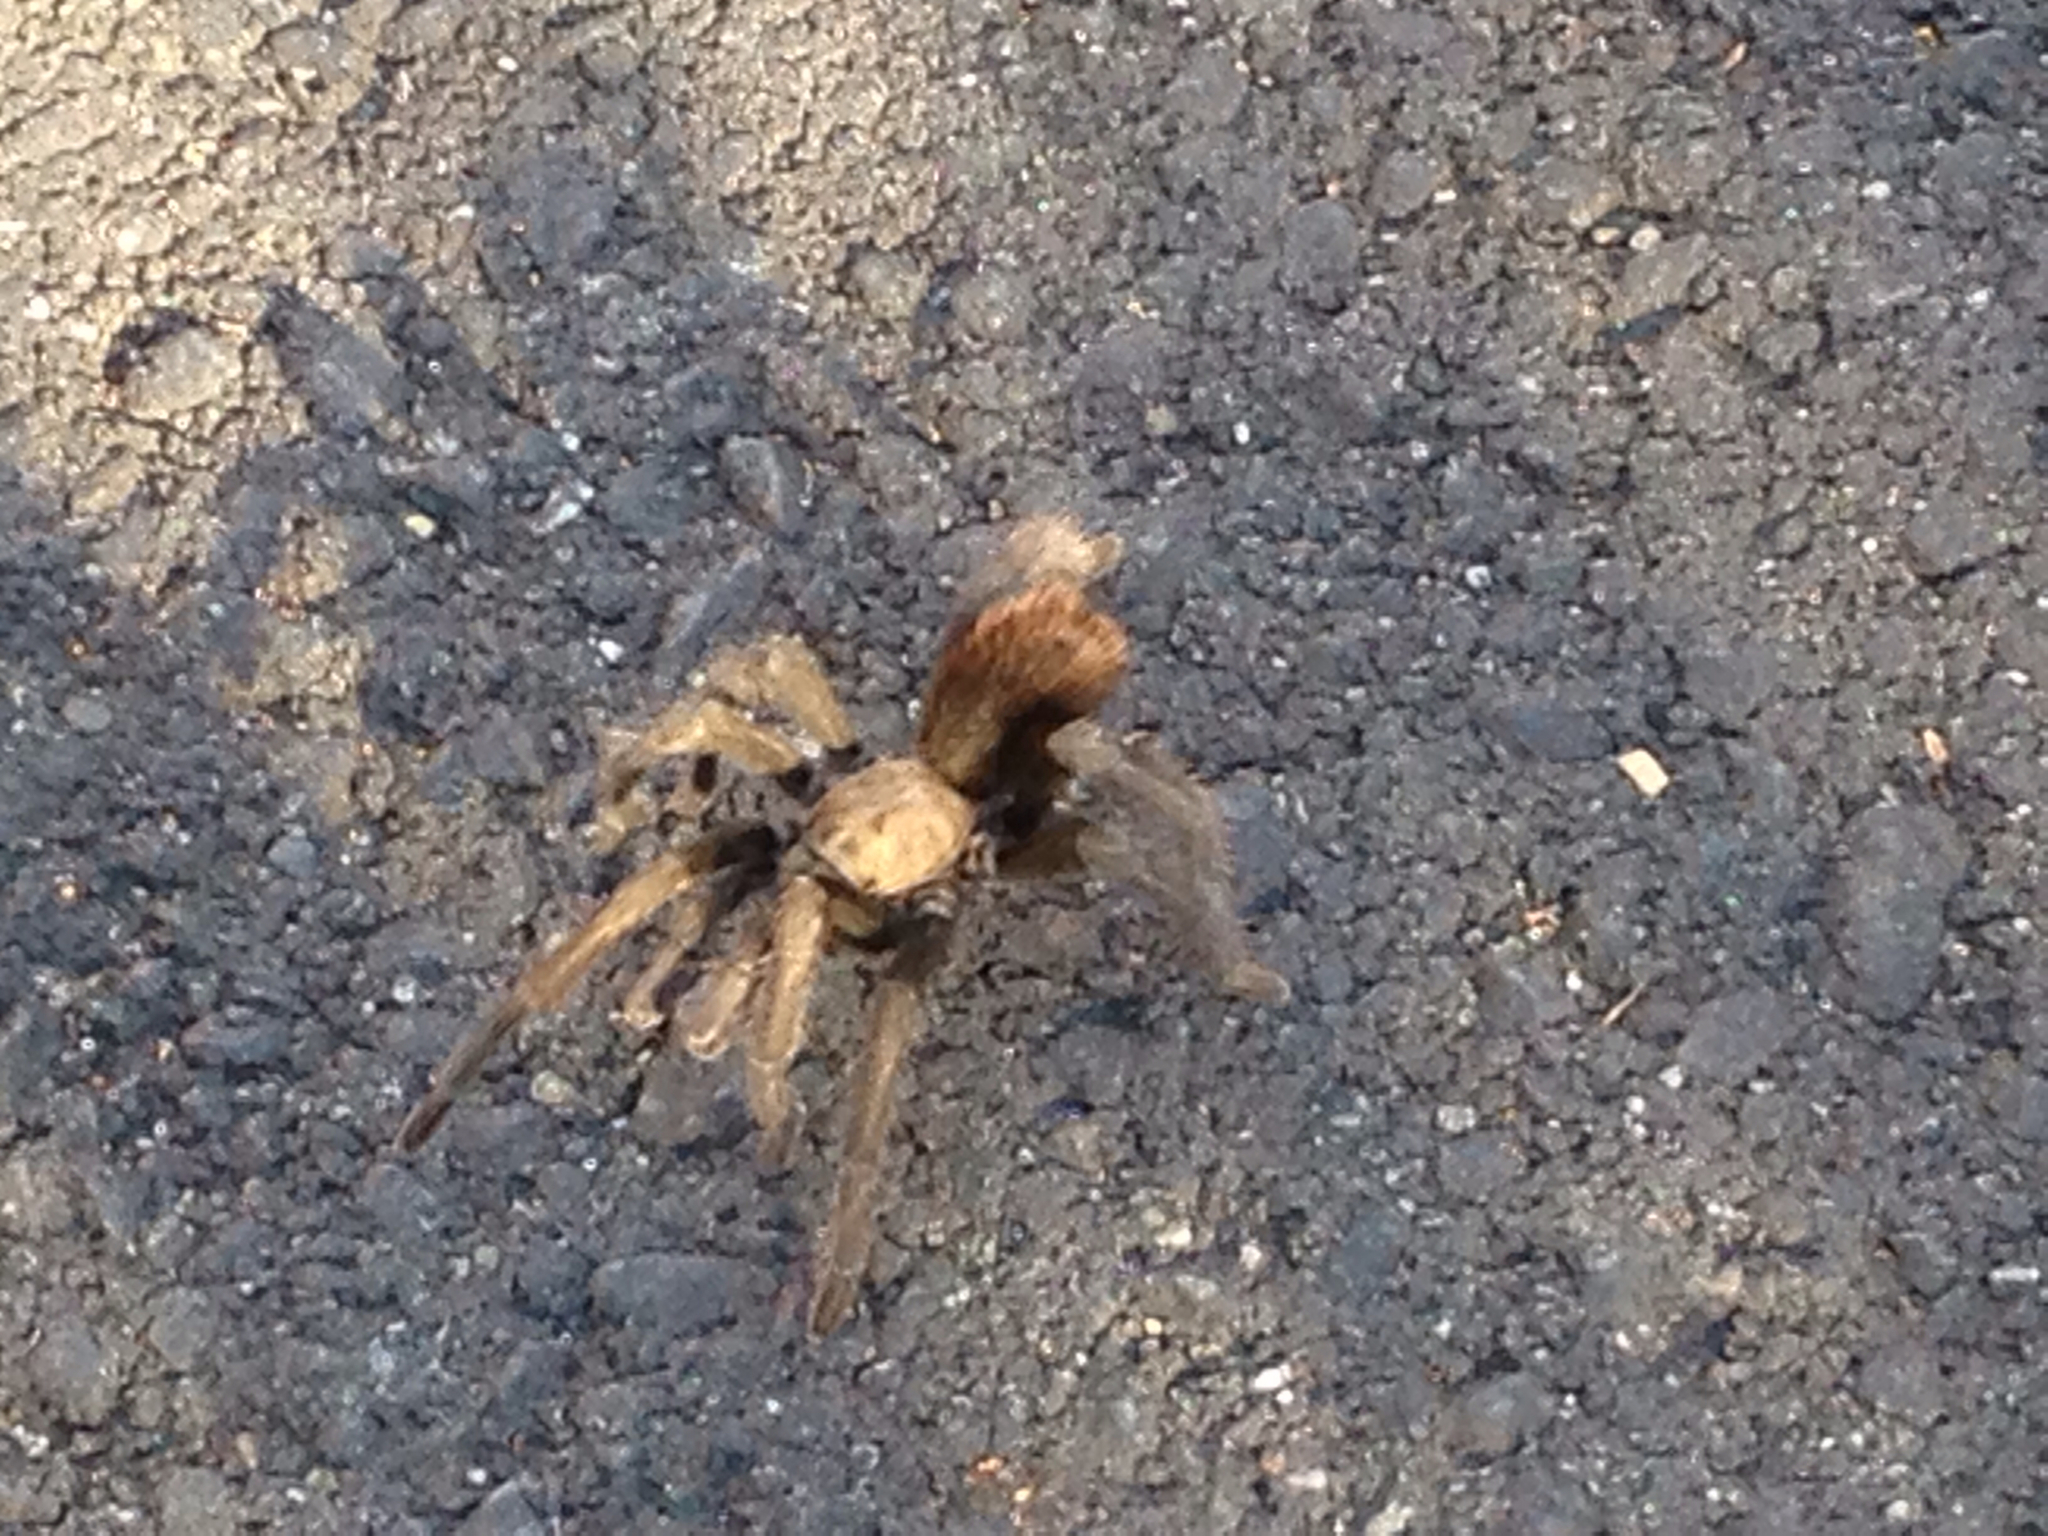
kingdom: Animalia
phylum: Arthropoda
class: Arachnida
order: Araneae
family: Theraphosidae
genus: Aphonopelma
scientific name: Aphonopelma iodius
